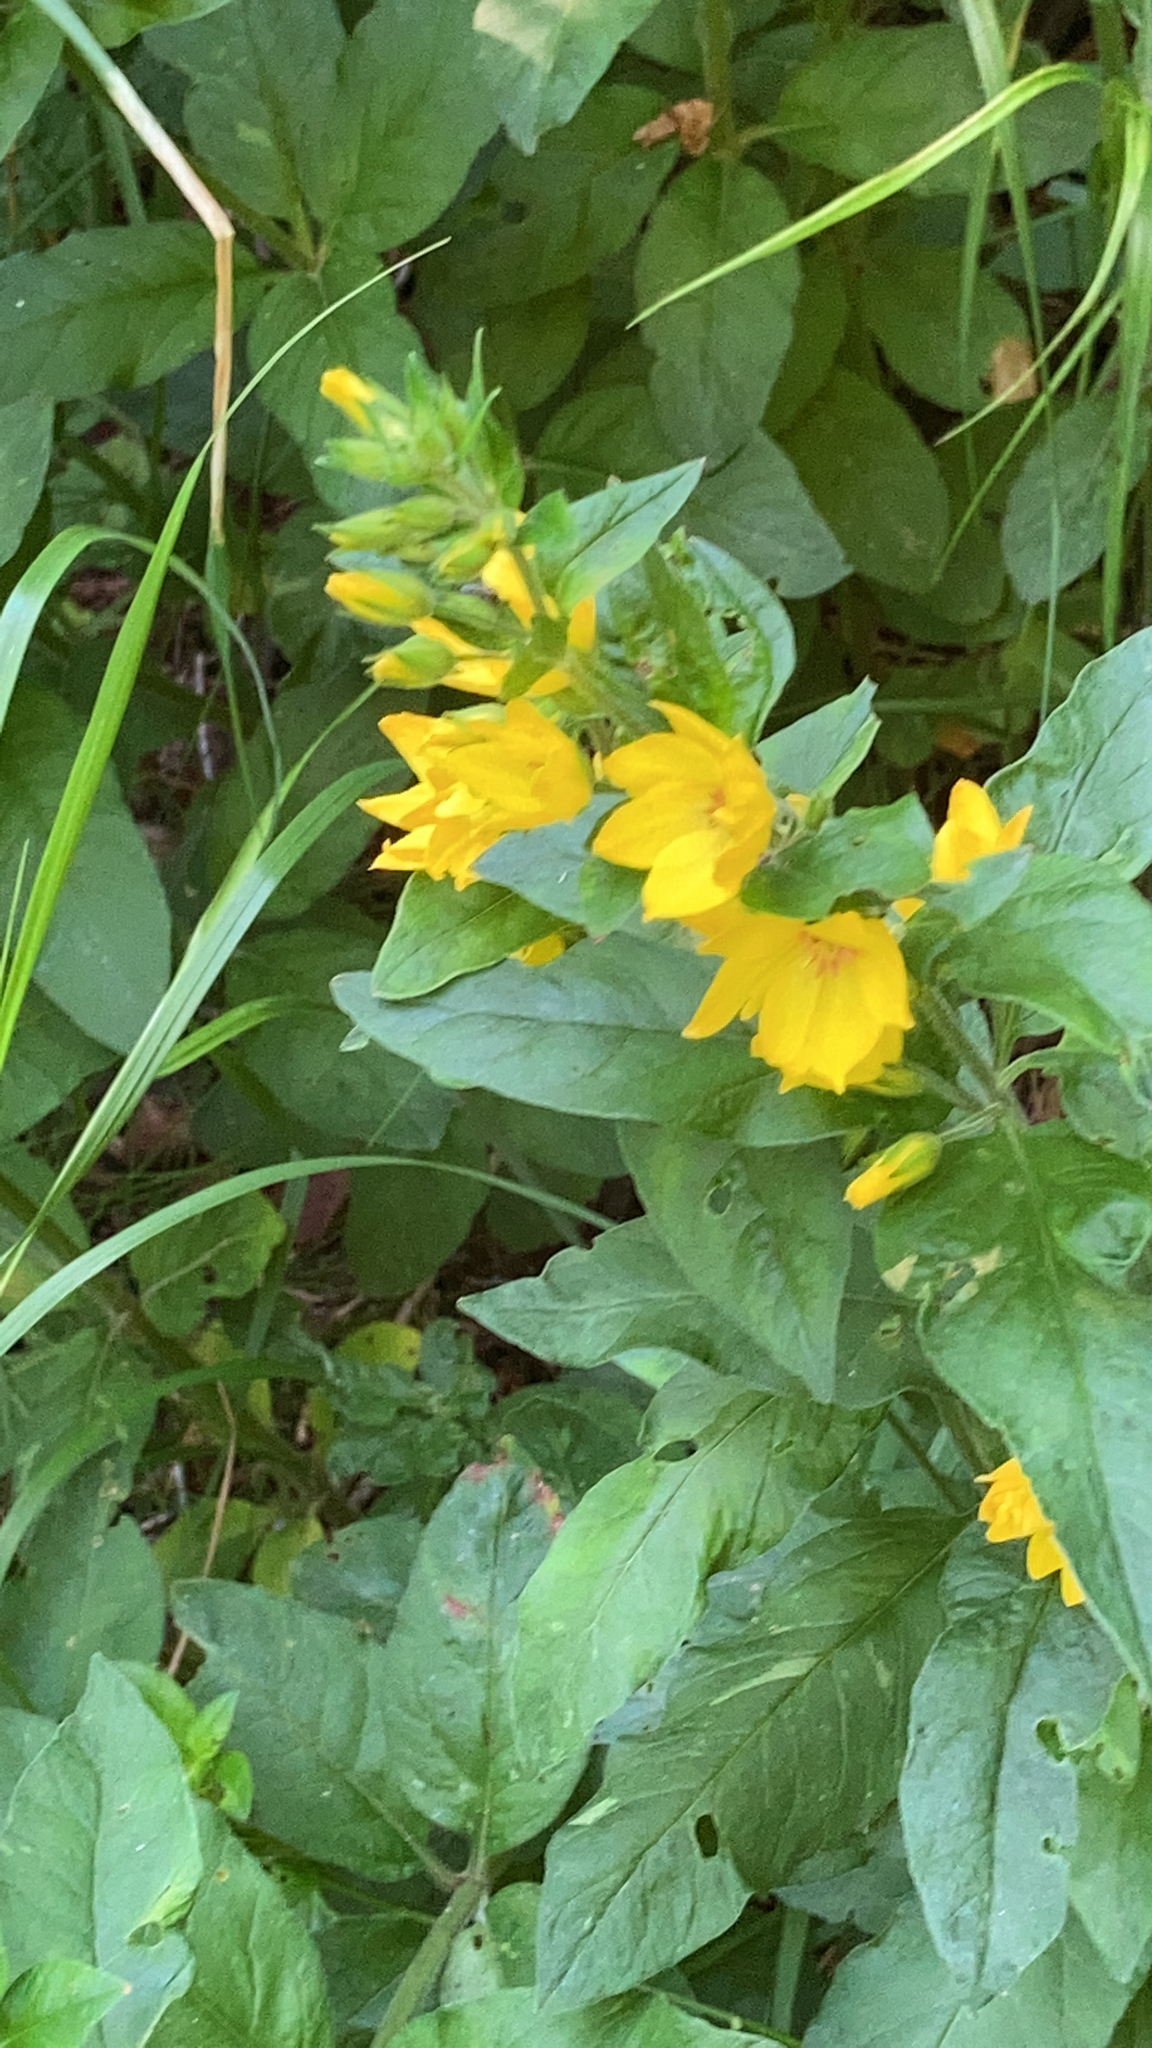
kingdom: Plantae
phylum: Tracheophyta
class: Magnoliopsida
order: Ericales
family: Primulaceae
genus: Lysimachia
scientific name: Lysimachia punctata
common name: Dotted loosestrife
